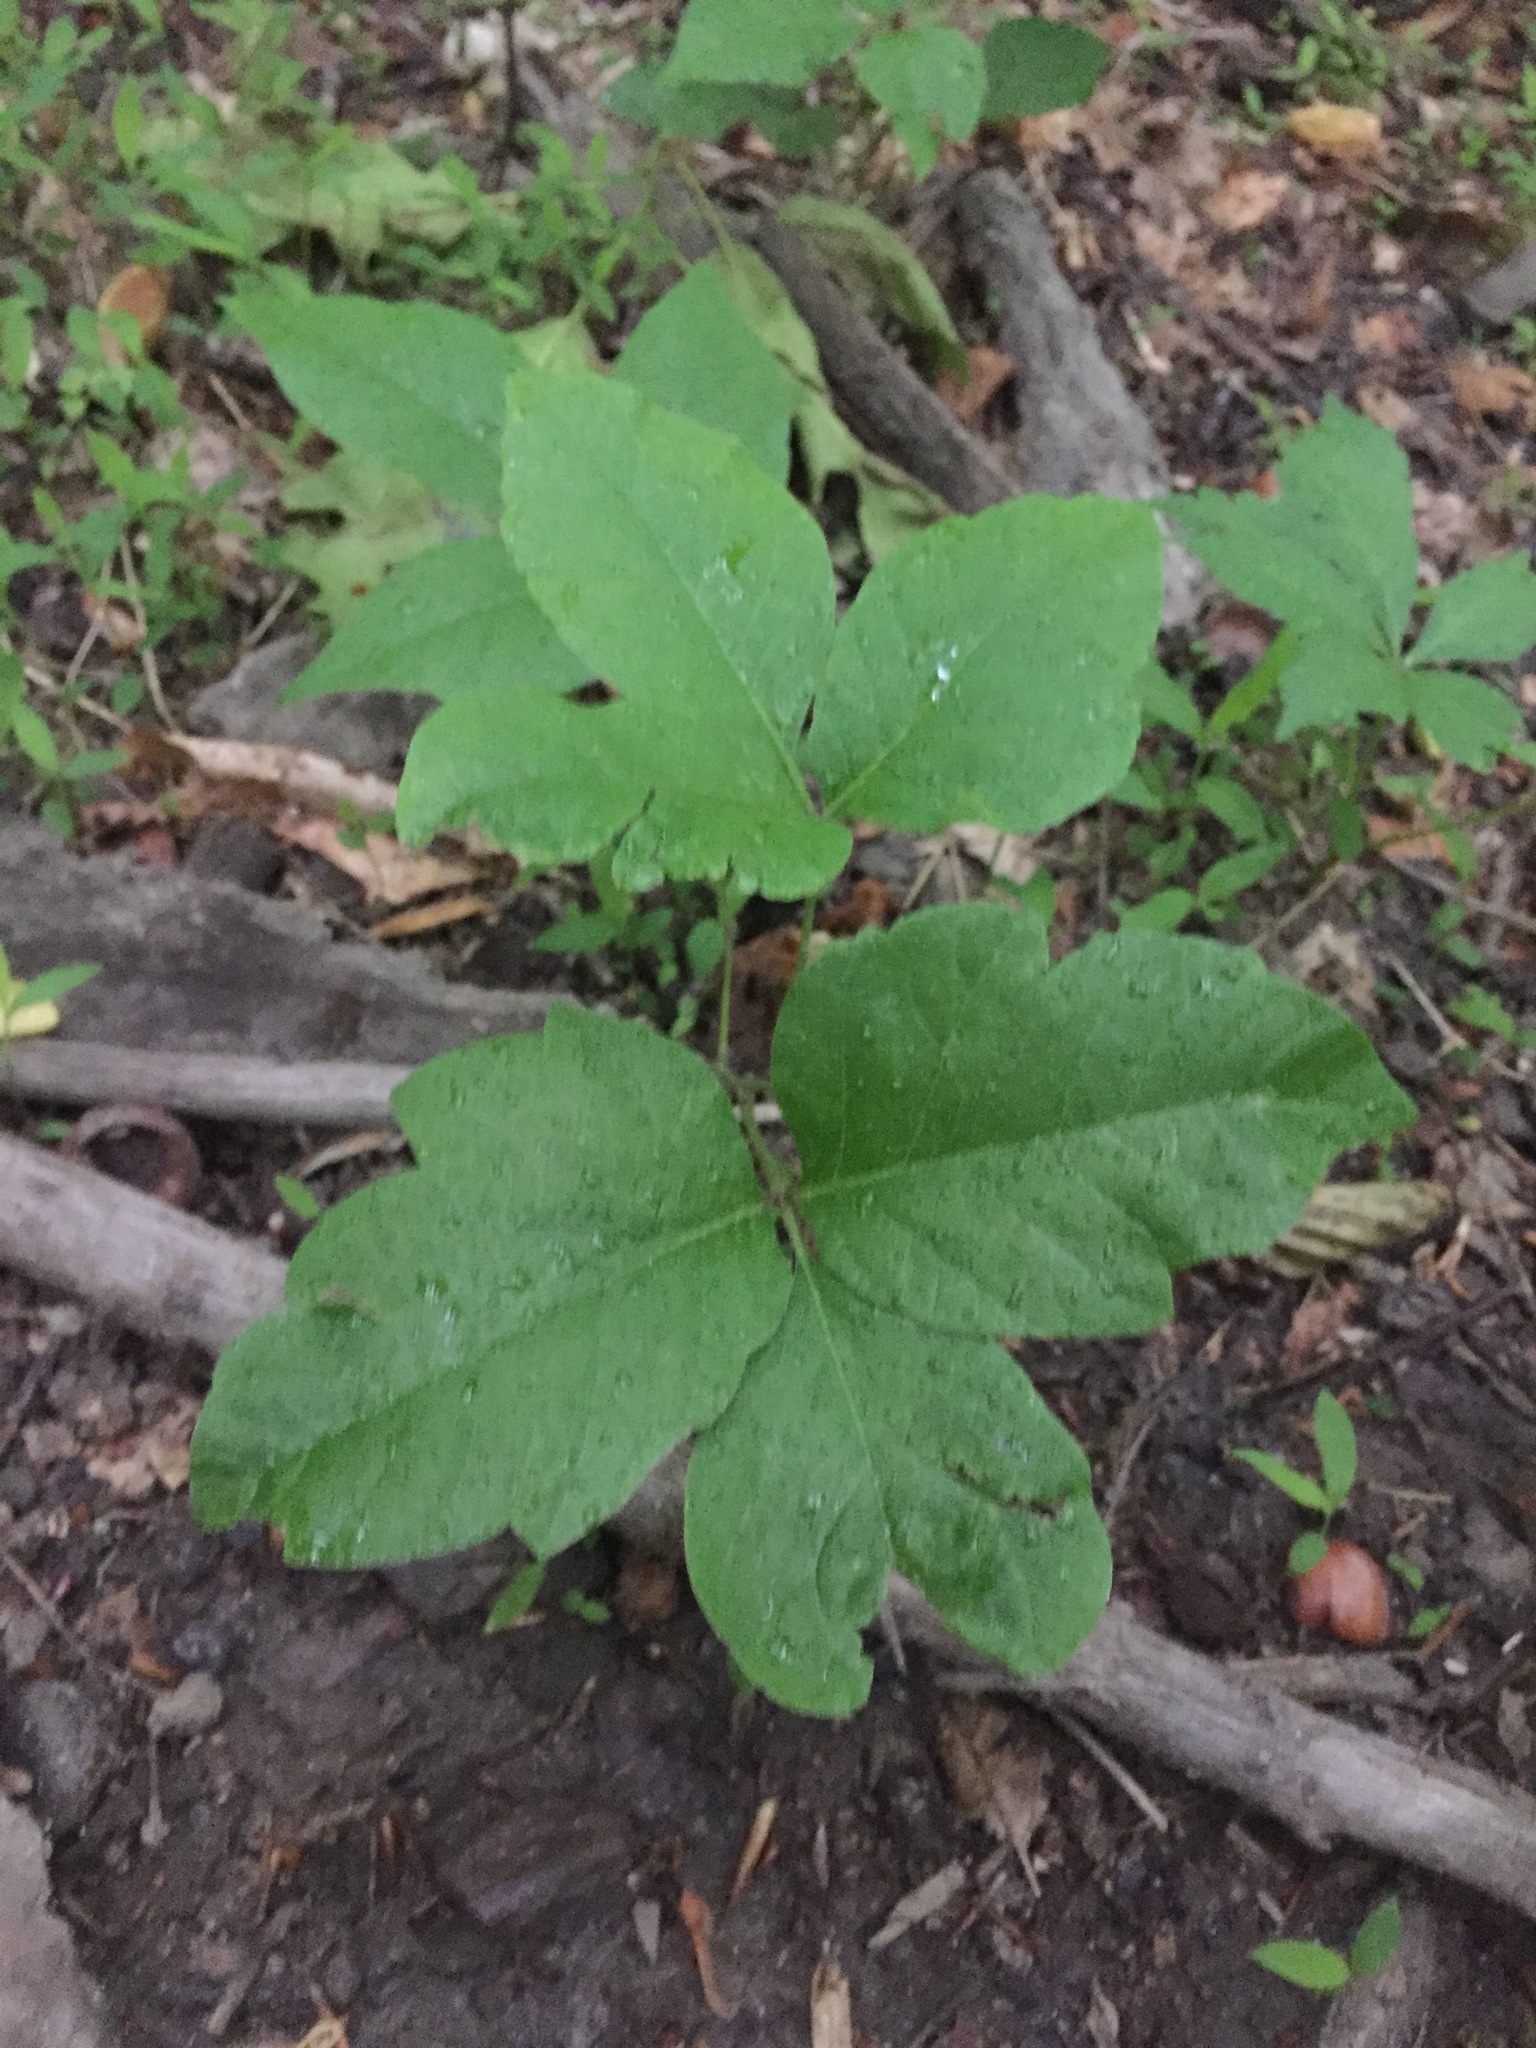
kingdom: Plantae
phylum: Tracheophyta
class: Magnoliopsida
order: Sapindales
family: Anacardiaceae
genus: Toxicodendron
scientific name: Toxicodendron radicans
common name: Poison ivy
